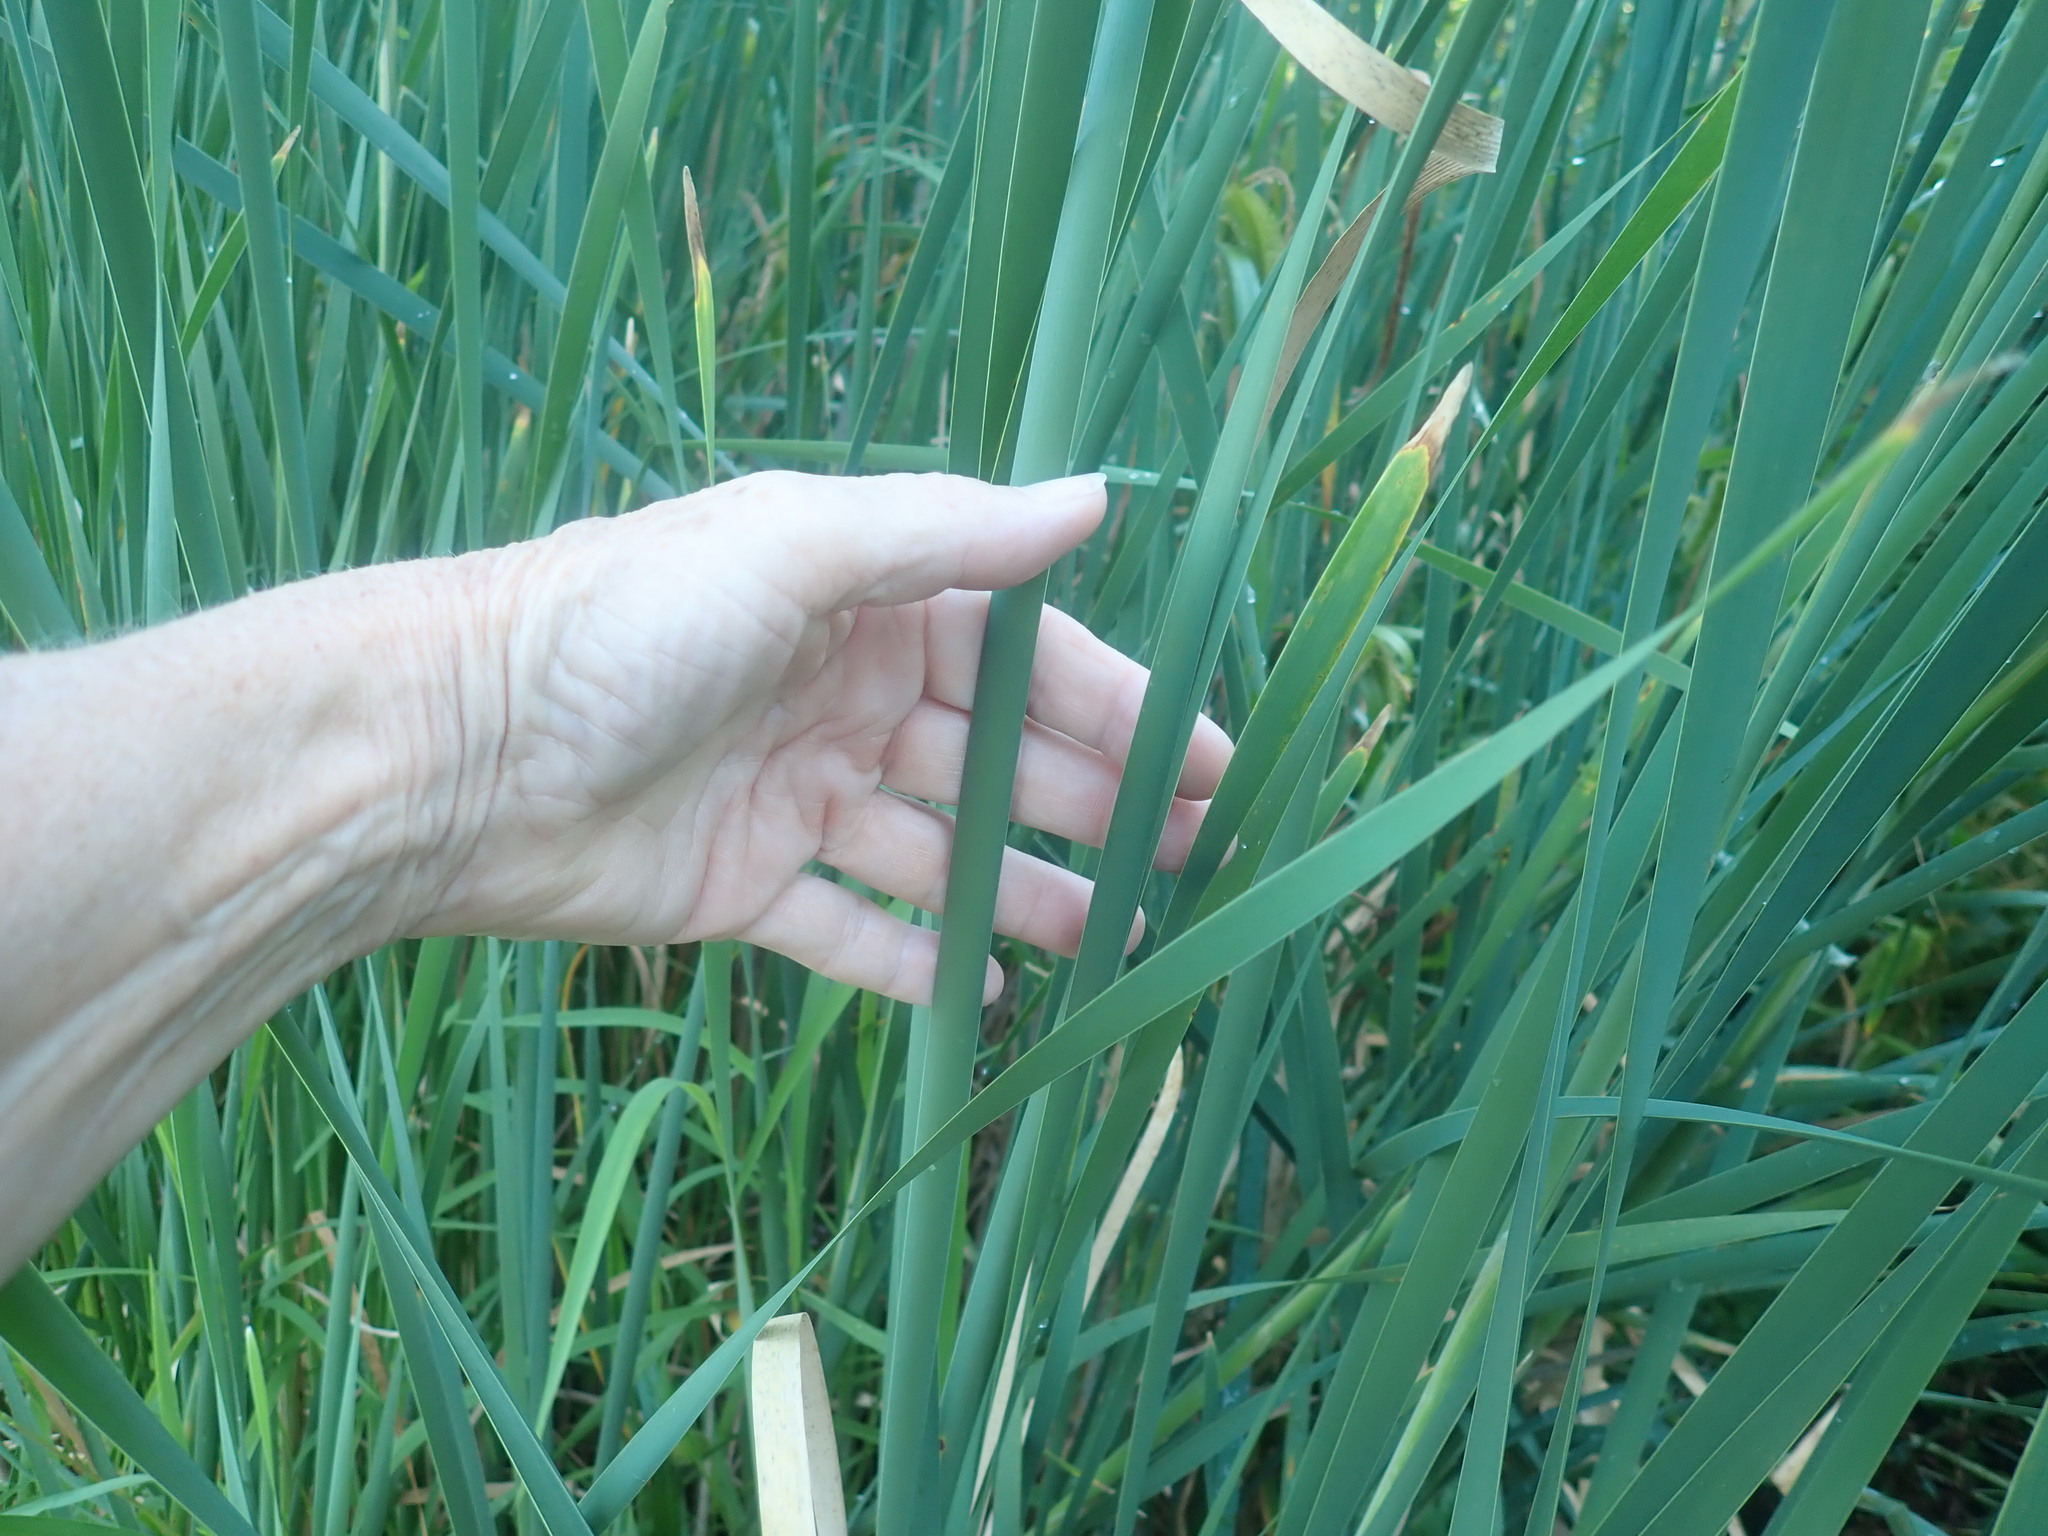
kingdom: Plantae
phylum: Tracheophyta
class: Liliopsida
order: Poales
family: Typhaceae
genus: Typha
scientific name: Typha angustifolia
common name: Lesser bulrush
